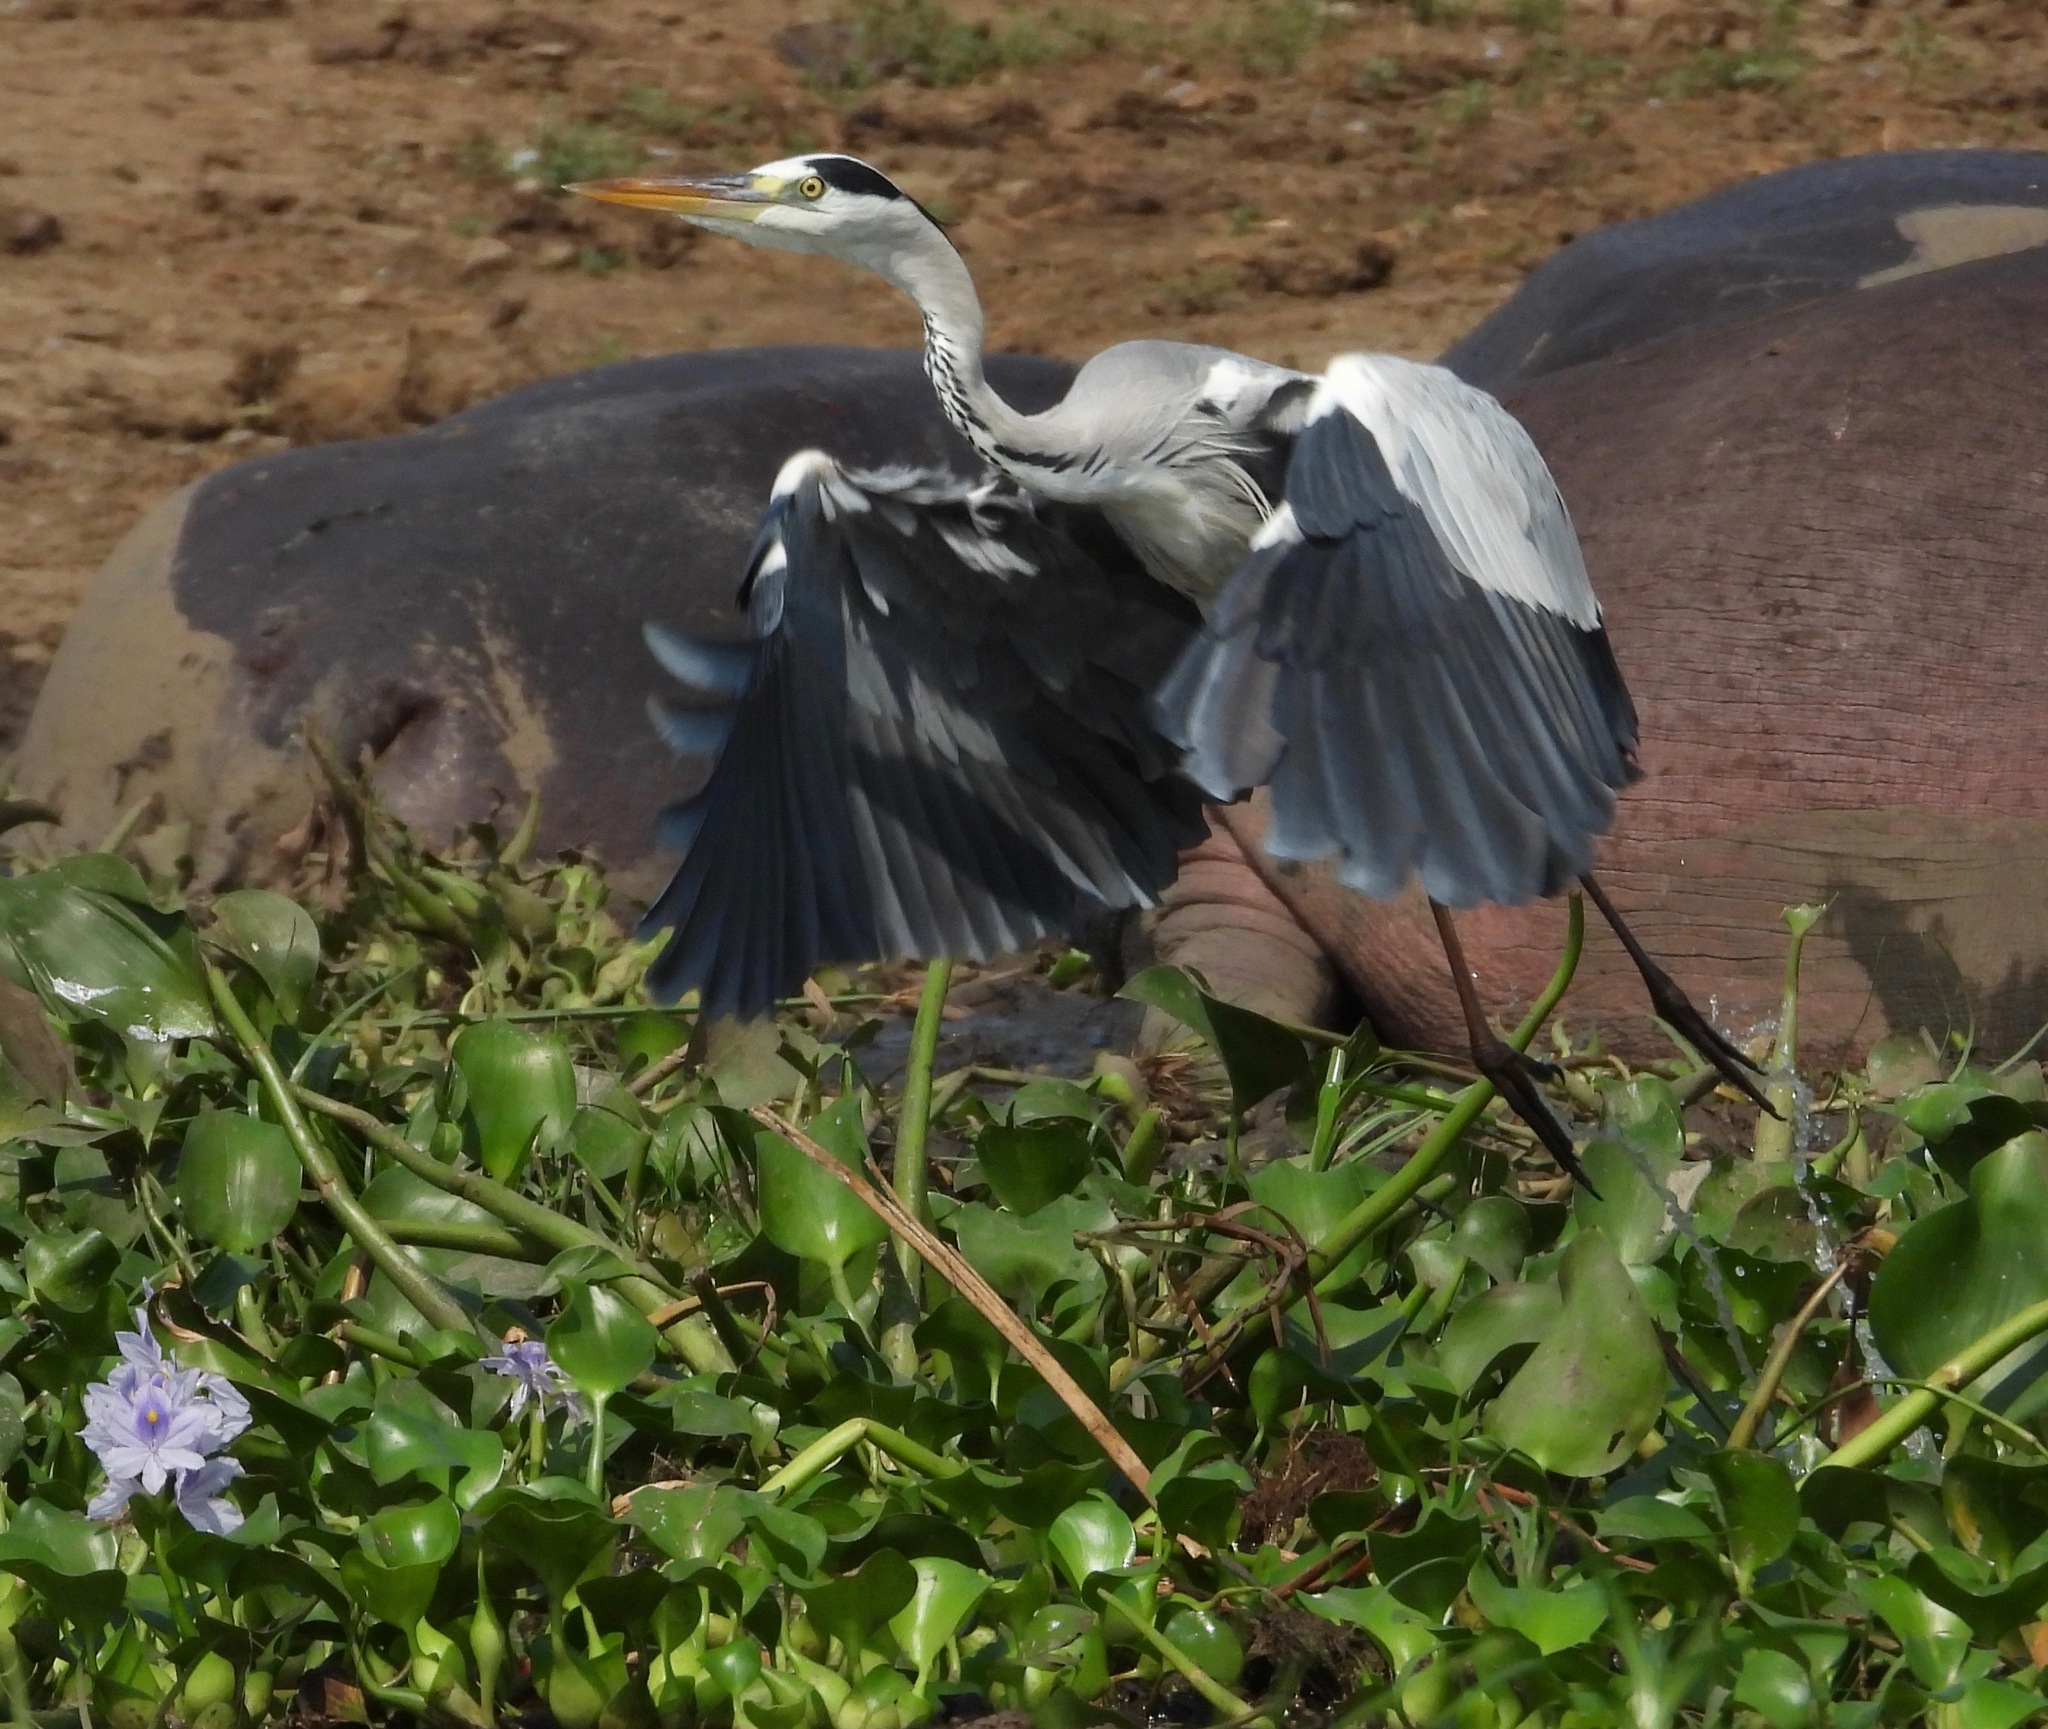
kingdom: Animalia
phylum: Chordata
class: Aves
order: Pelecaniformes
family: Ardeidae
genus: Ardea
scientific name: Ardea cinerea
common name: Grey heron
